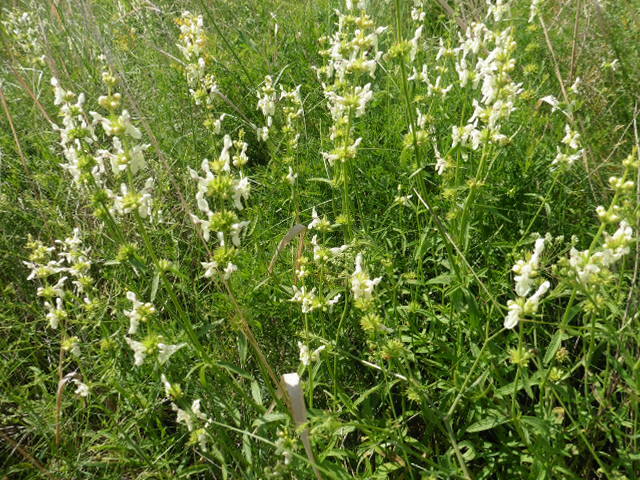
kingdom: Plantae
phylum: Tracheophyta
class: Magnoliopsida
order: Lamiales
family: Lamiaceae
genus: Stachys
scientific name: Stachys recta
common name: Perennial yellow-woundwort
